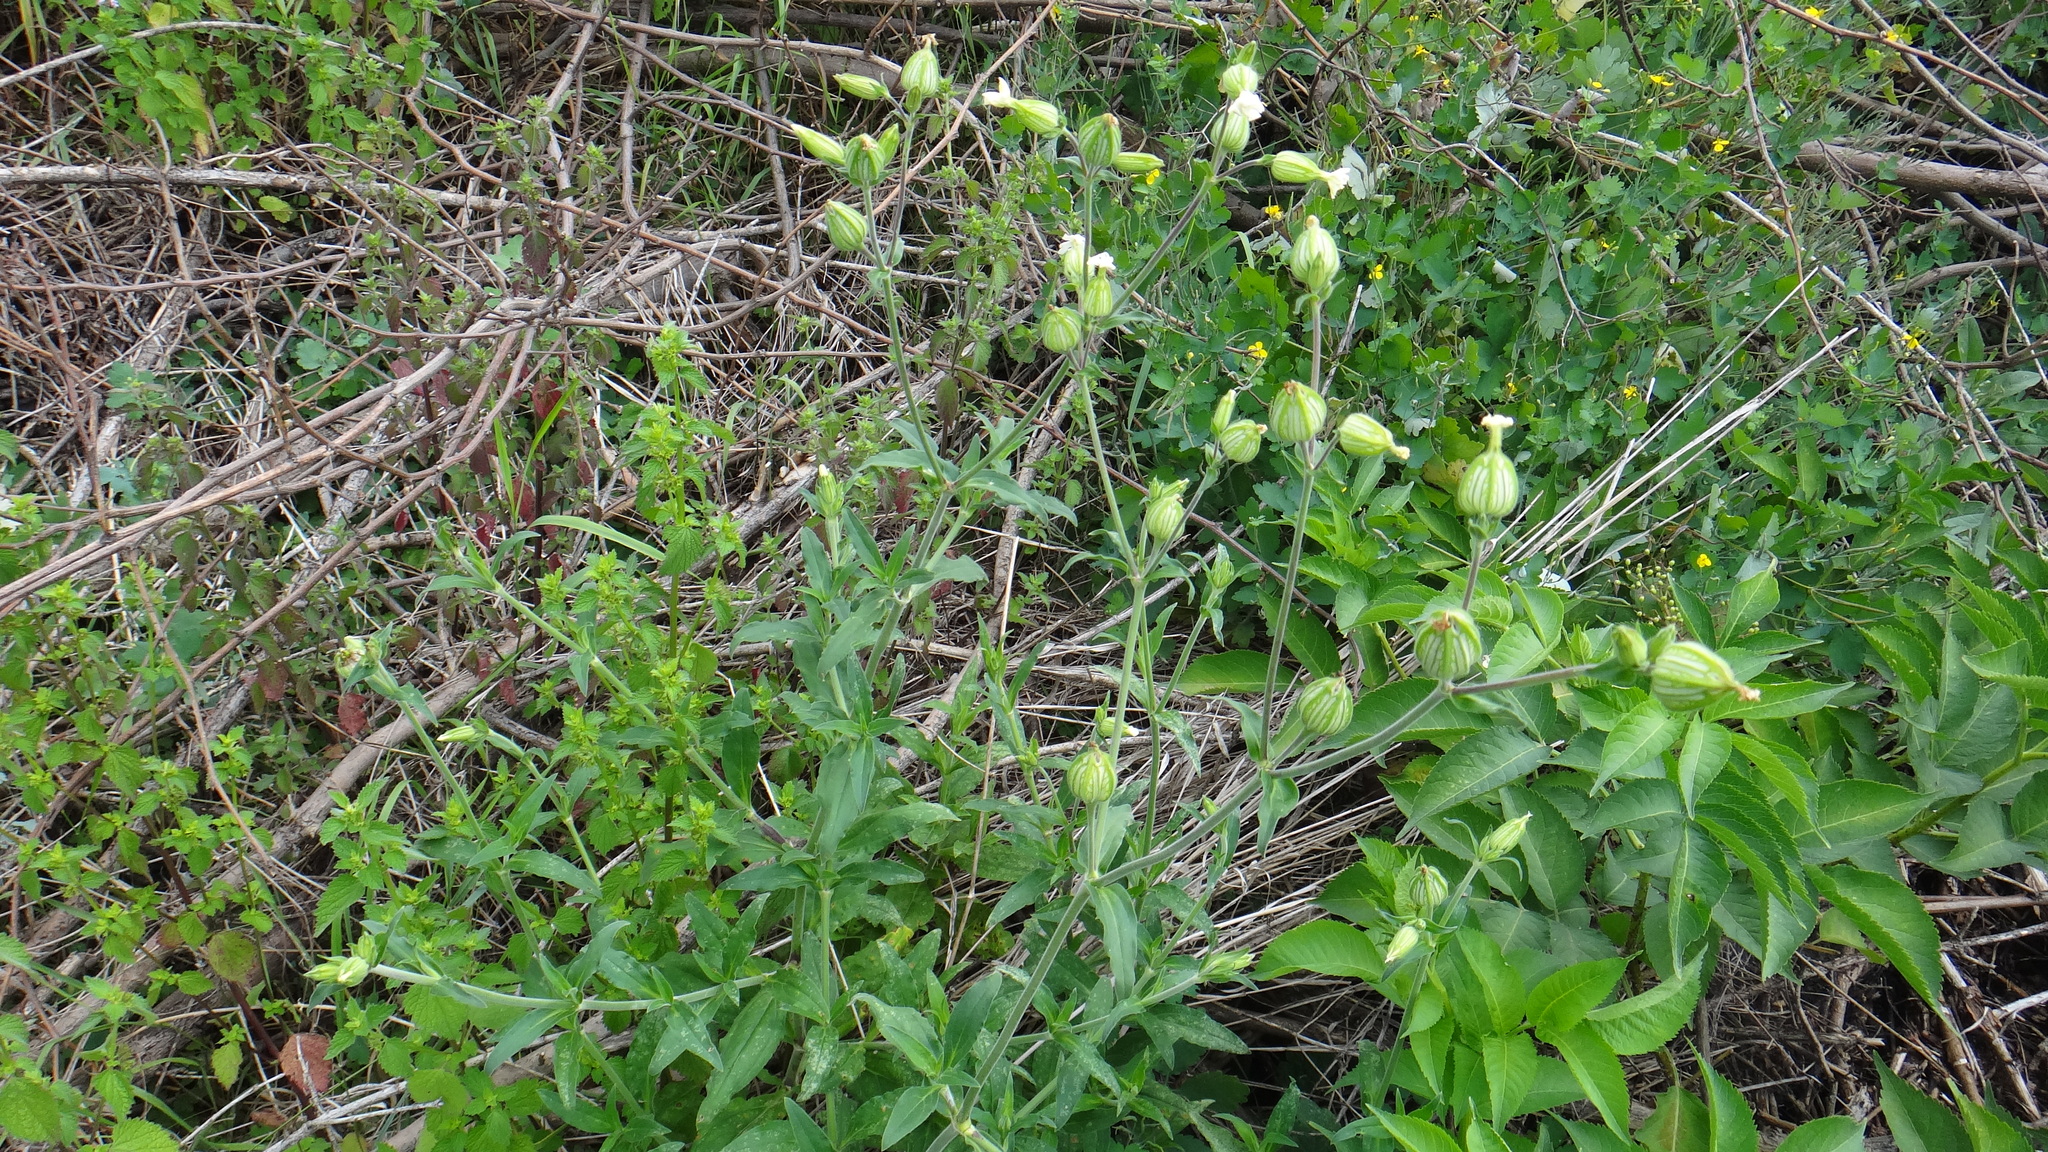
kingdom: Plantae
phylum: Tracheophyta
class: Magnoliopsida
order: Caryophyllales
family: Caryophyllaceae
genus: Silene
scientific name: Silene latifolia
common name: White campion
